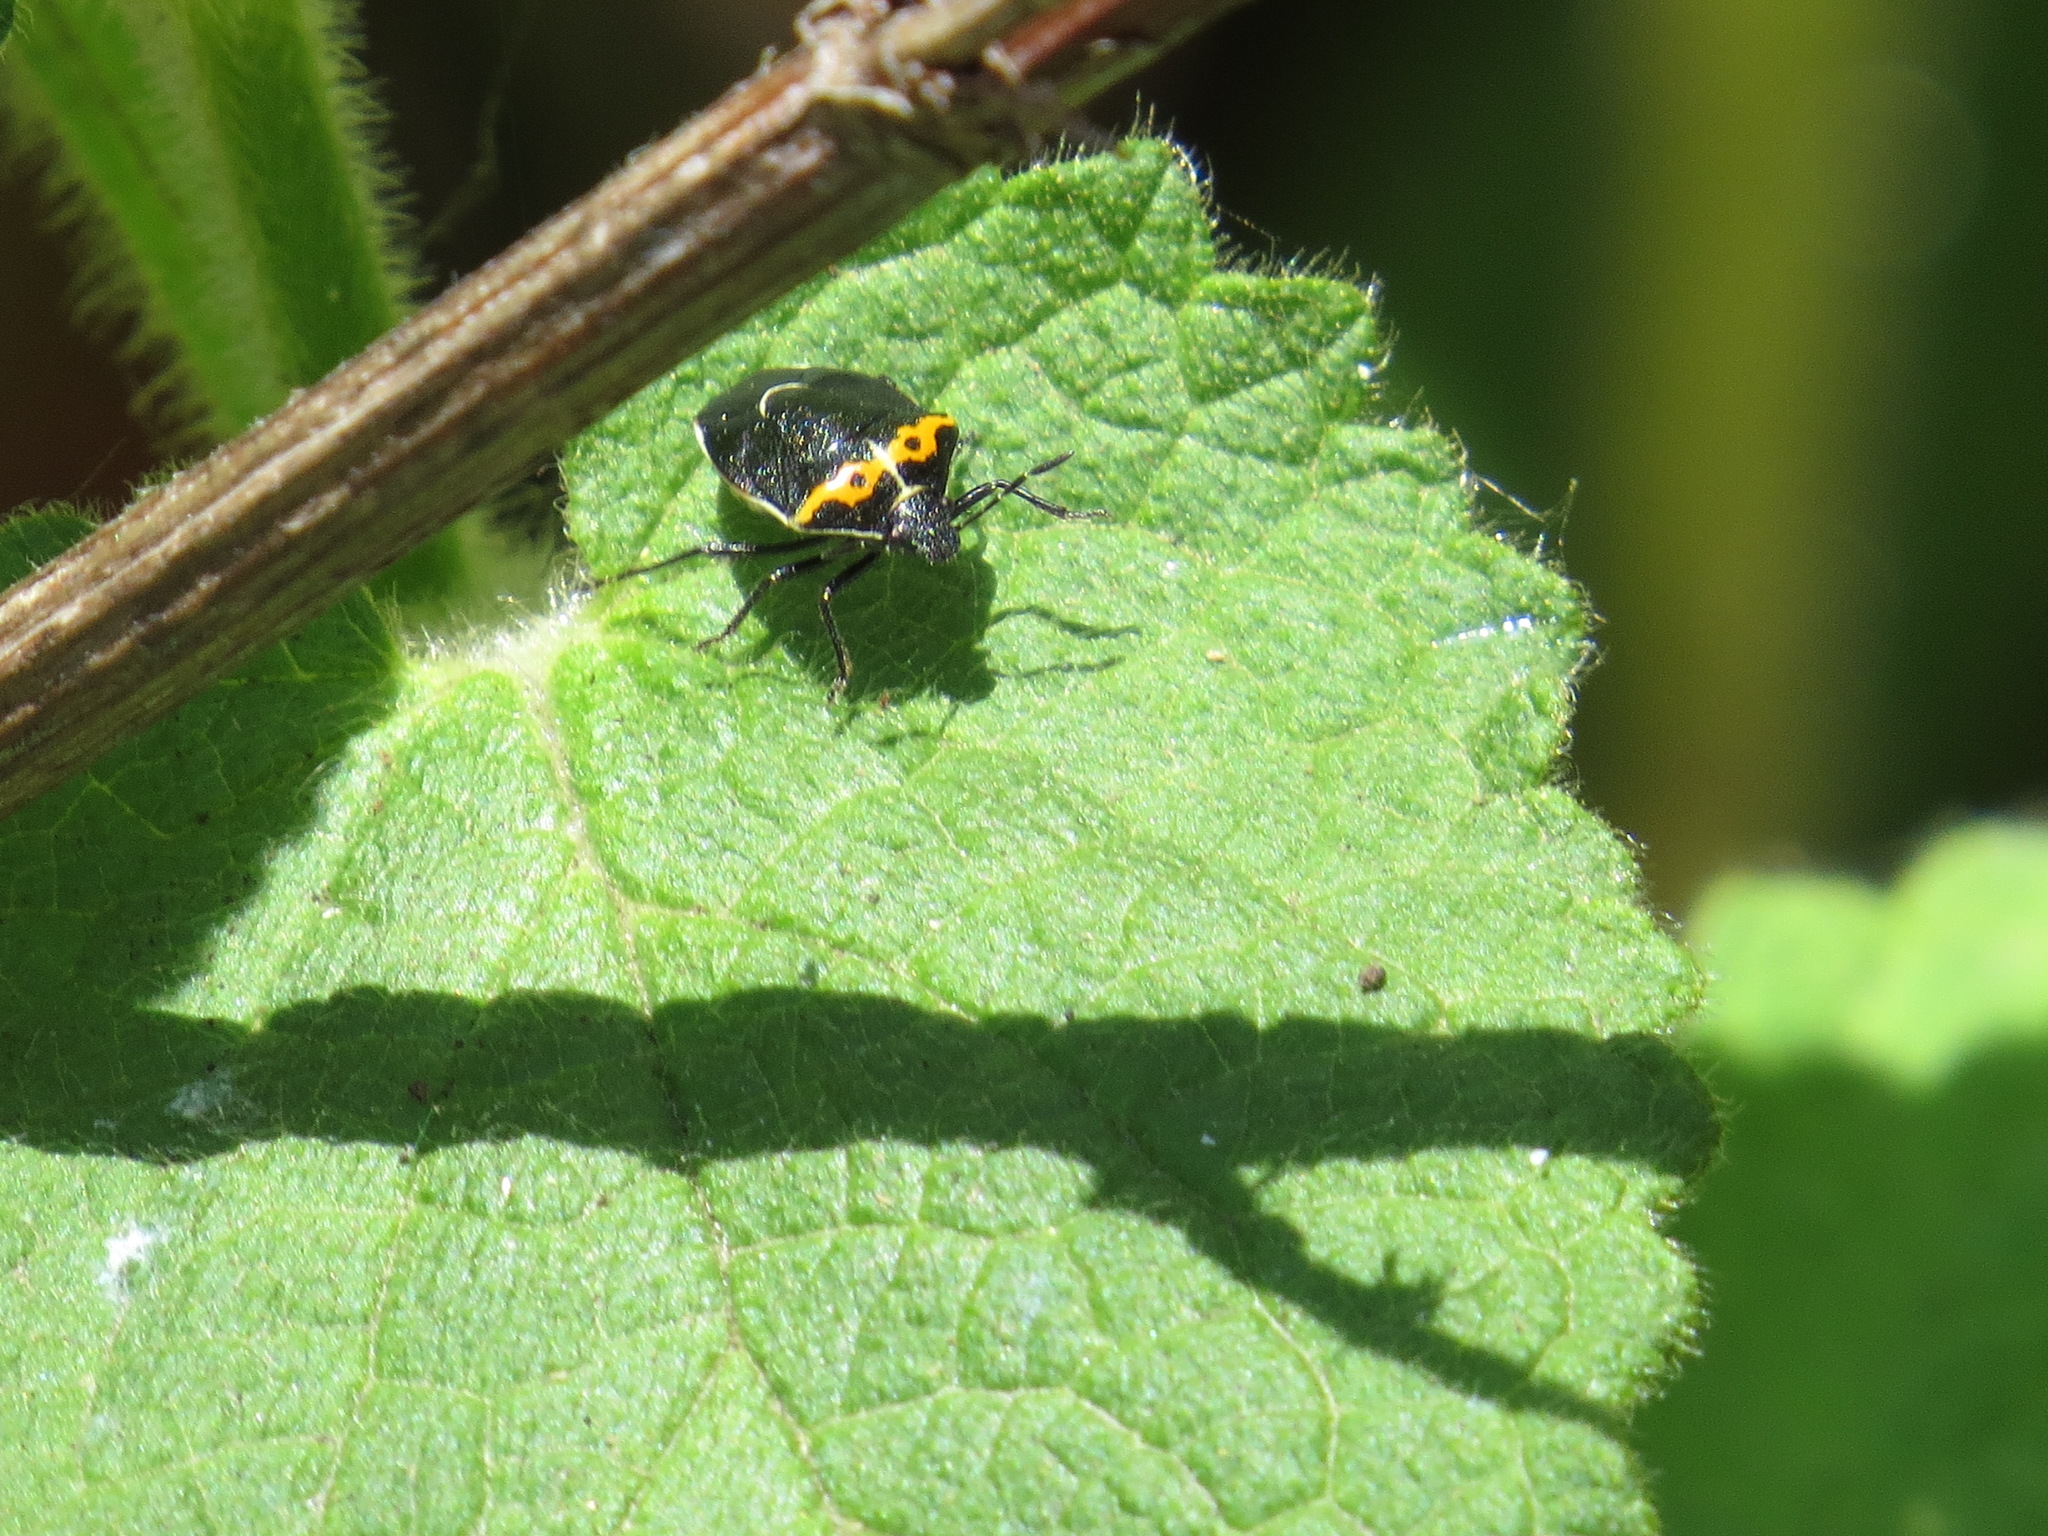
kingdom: Animalia
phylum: Arthropoda
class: Insecta
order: Hemiptera
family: Pentatomidae
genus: Cosmopepla
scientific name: Cosmopepla conspicillaris
